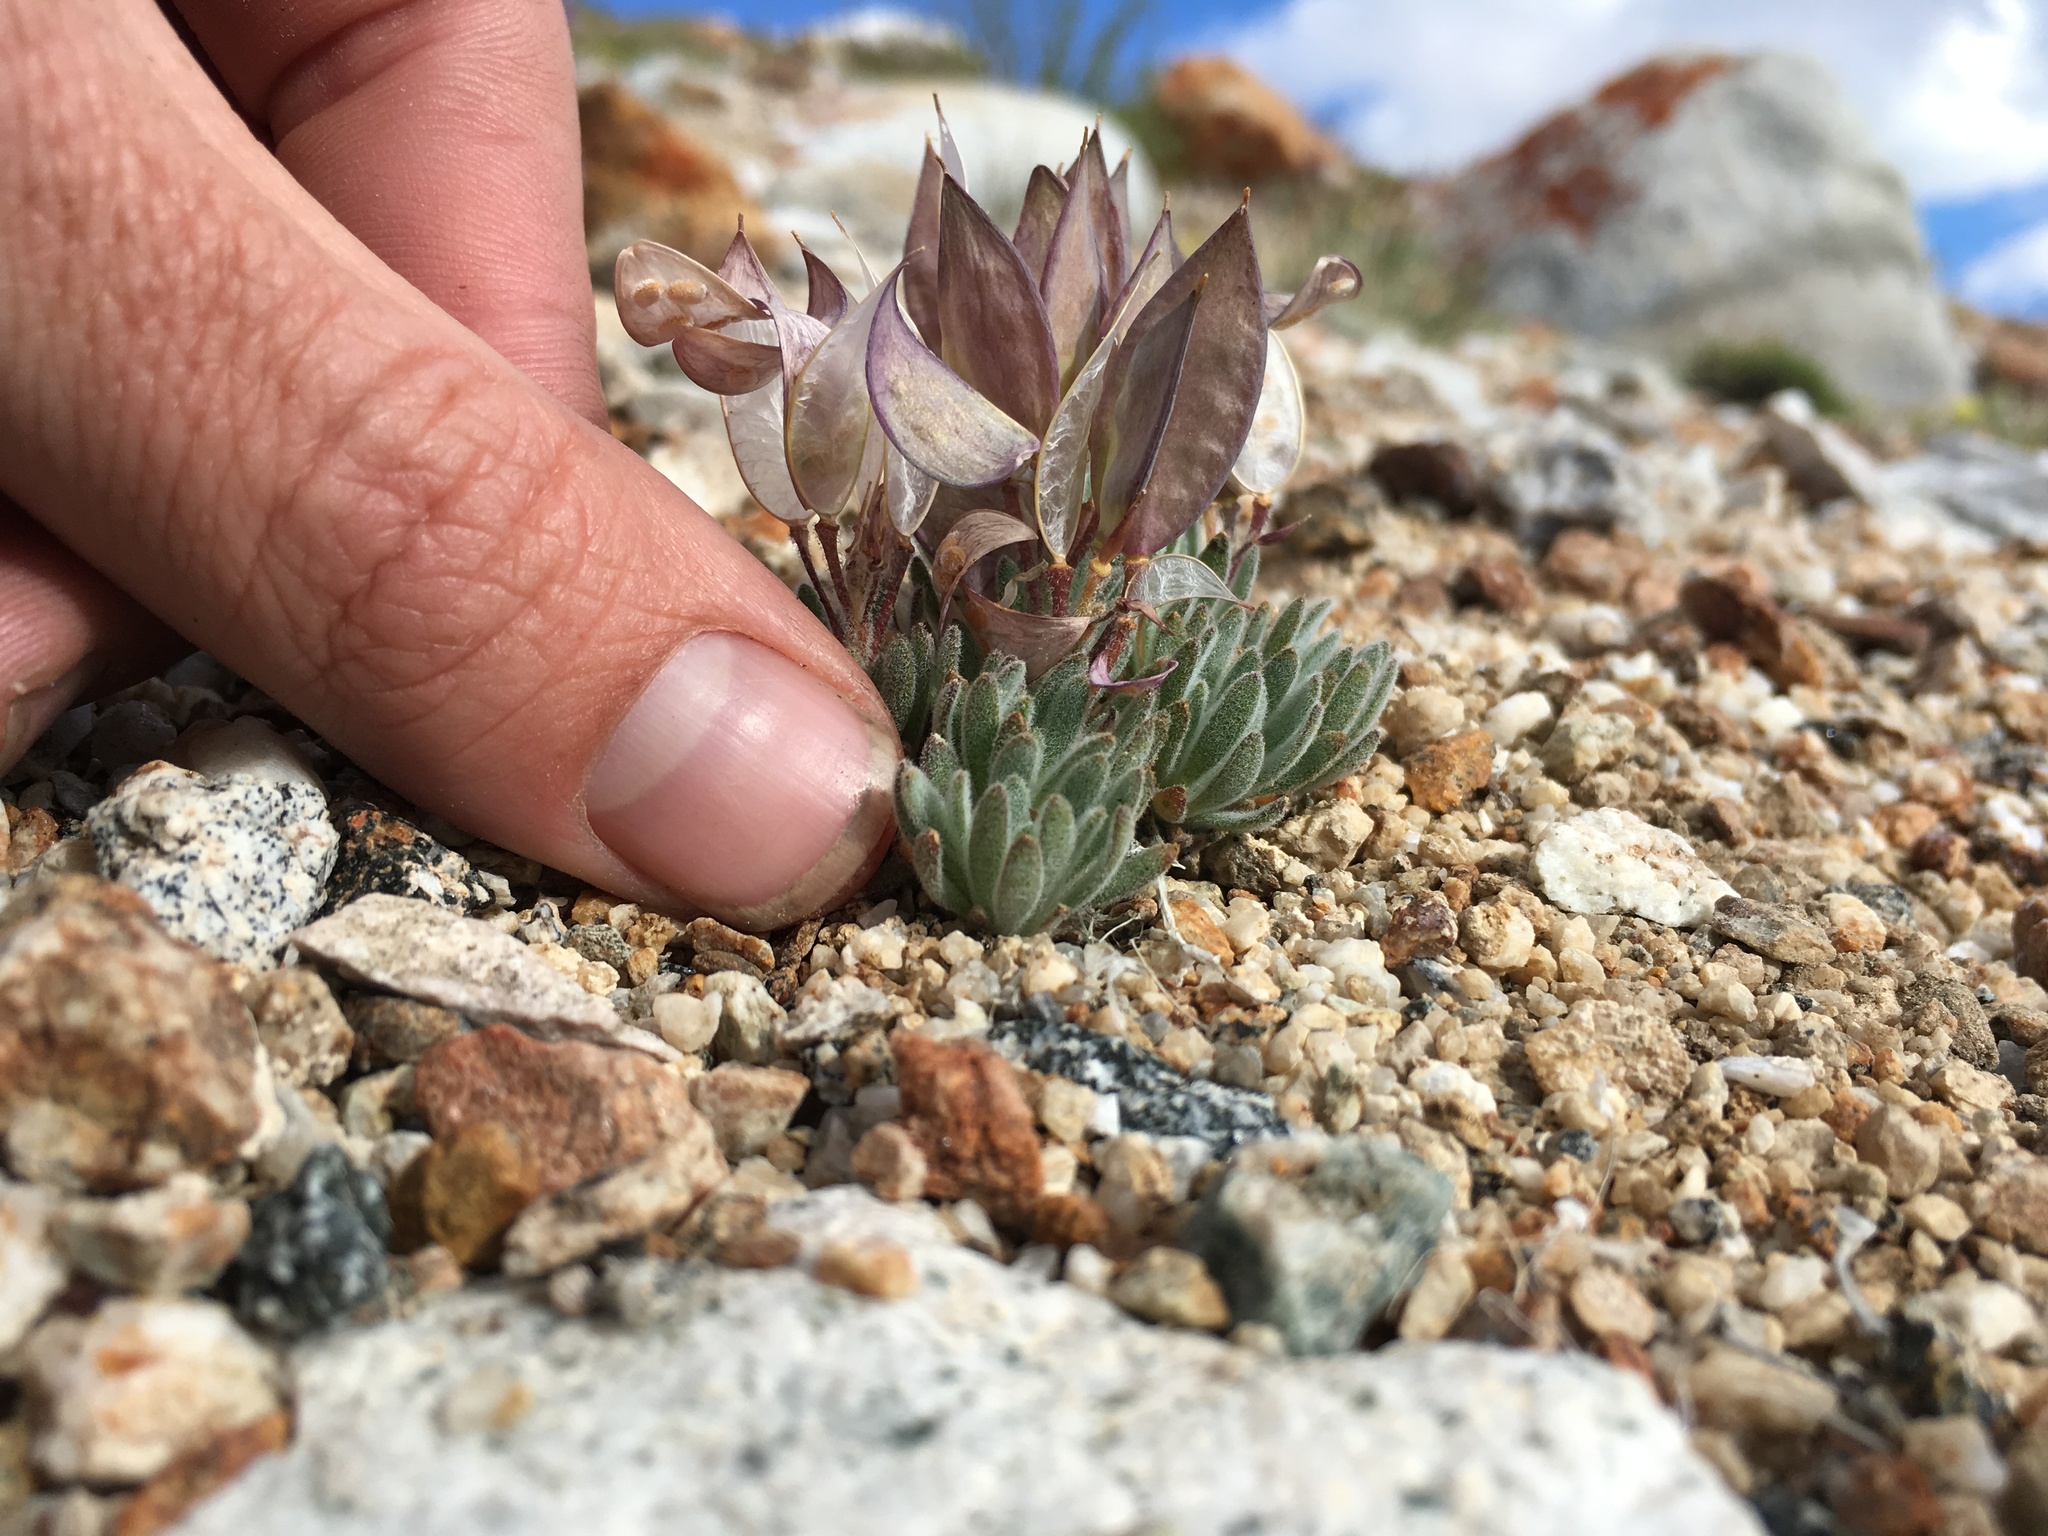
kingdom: Plantae
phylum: Tracheophyta
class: Magnoliopsida
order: Brassicales
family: Brassicaceae
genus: Anelsonia
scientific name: Anelsonia eurycarpa
